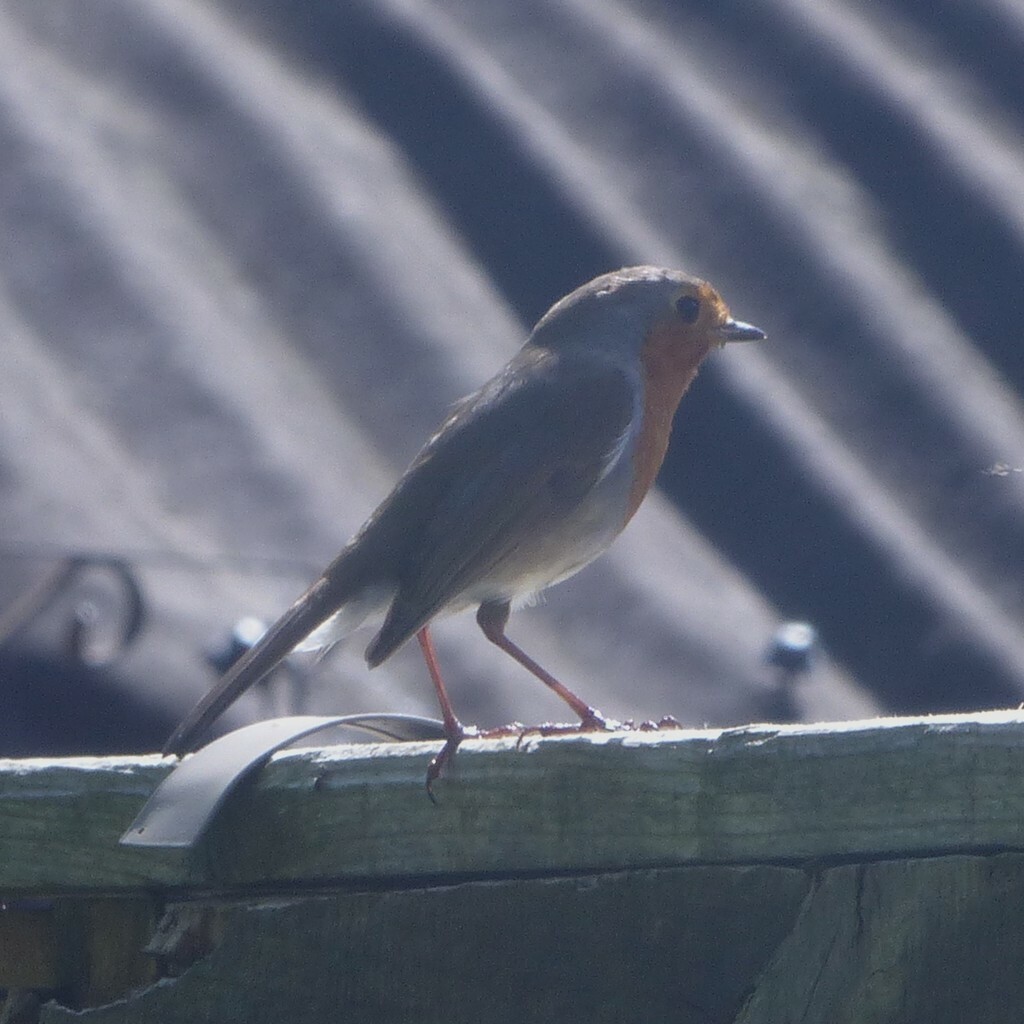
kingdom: Animalia
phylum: Chordata
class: Aves
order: Passeriformes
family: Muscicapidae
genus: Erithacus
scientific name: Erithacus rubecula
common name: European robin
